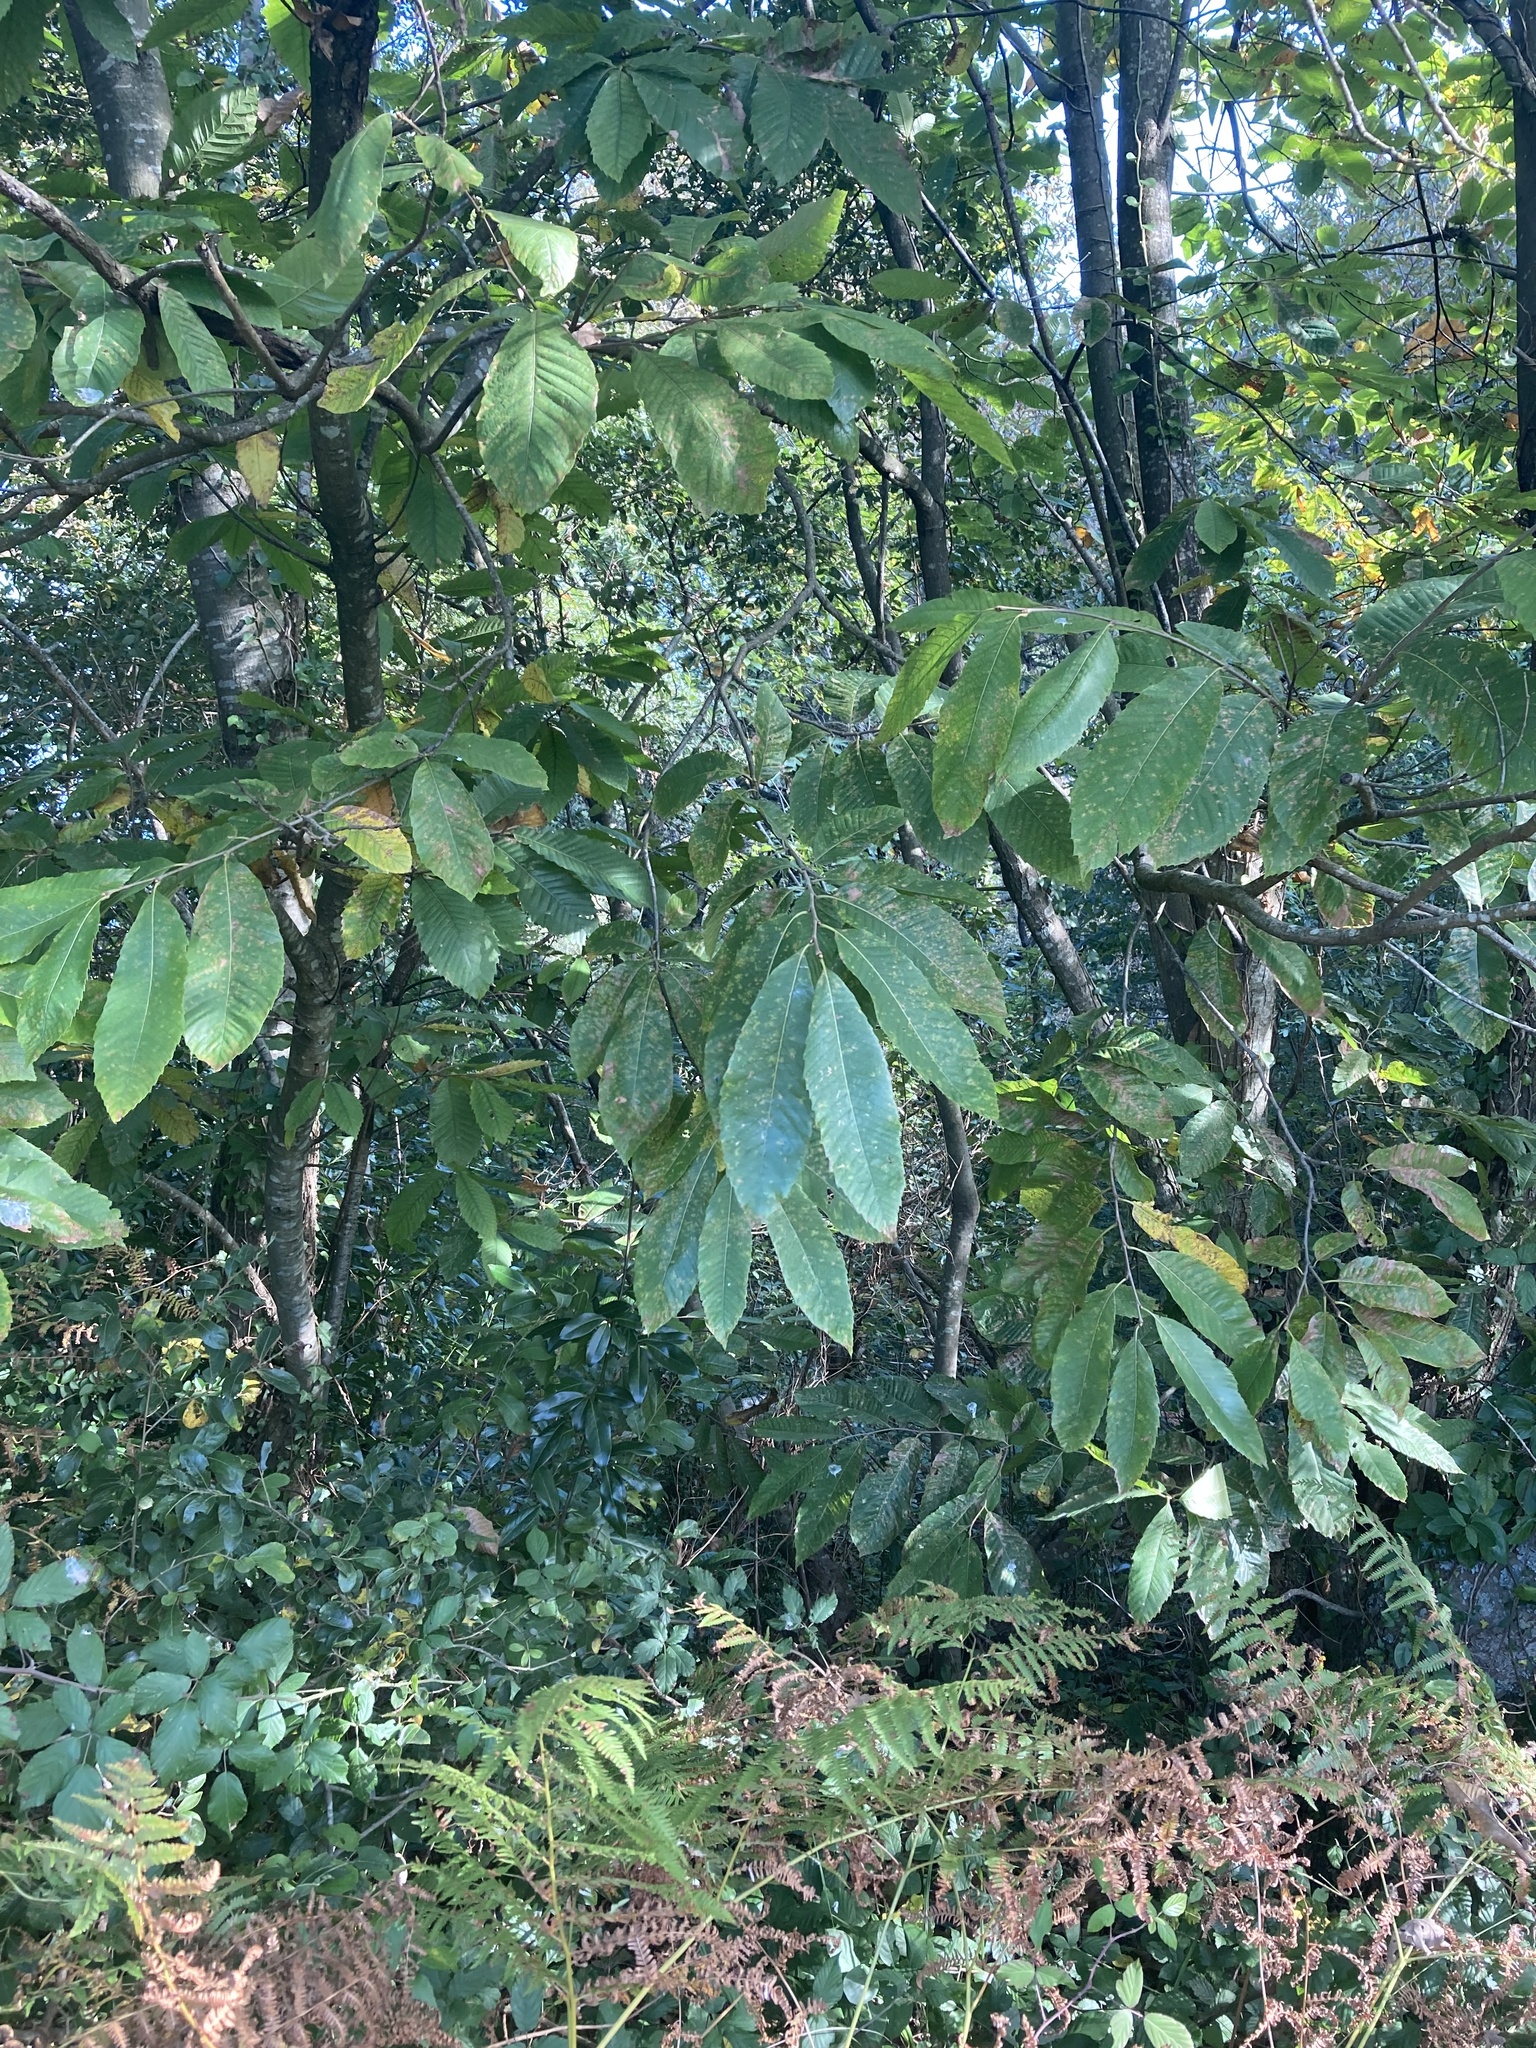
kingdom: Plantae
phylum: Tracheophyta
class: Magnoliopsida
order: Fagales
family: Fagaceae
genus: Castanea
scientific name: Castanea sativa
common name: Sweet chestnut
